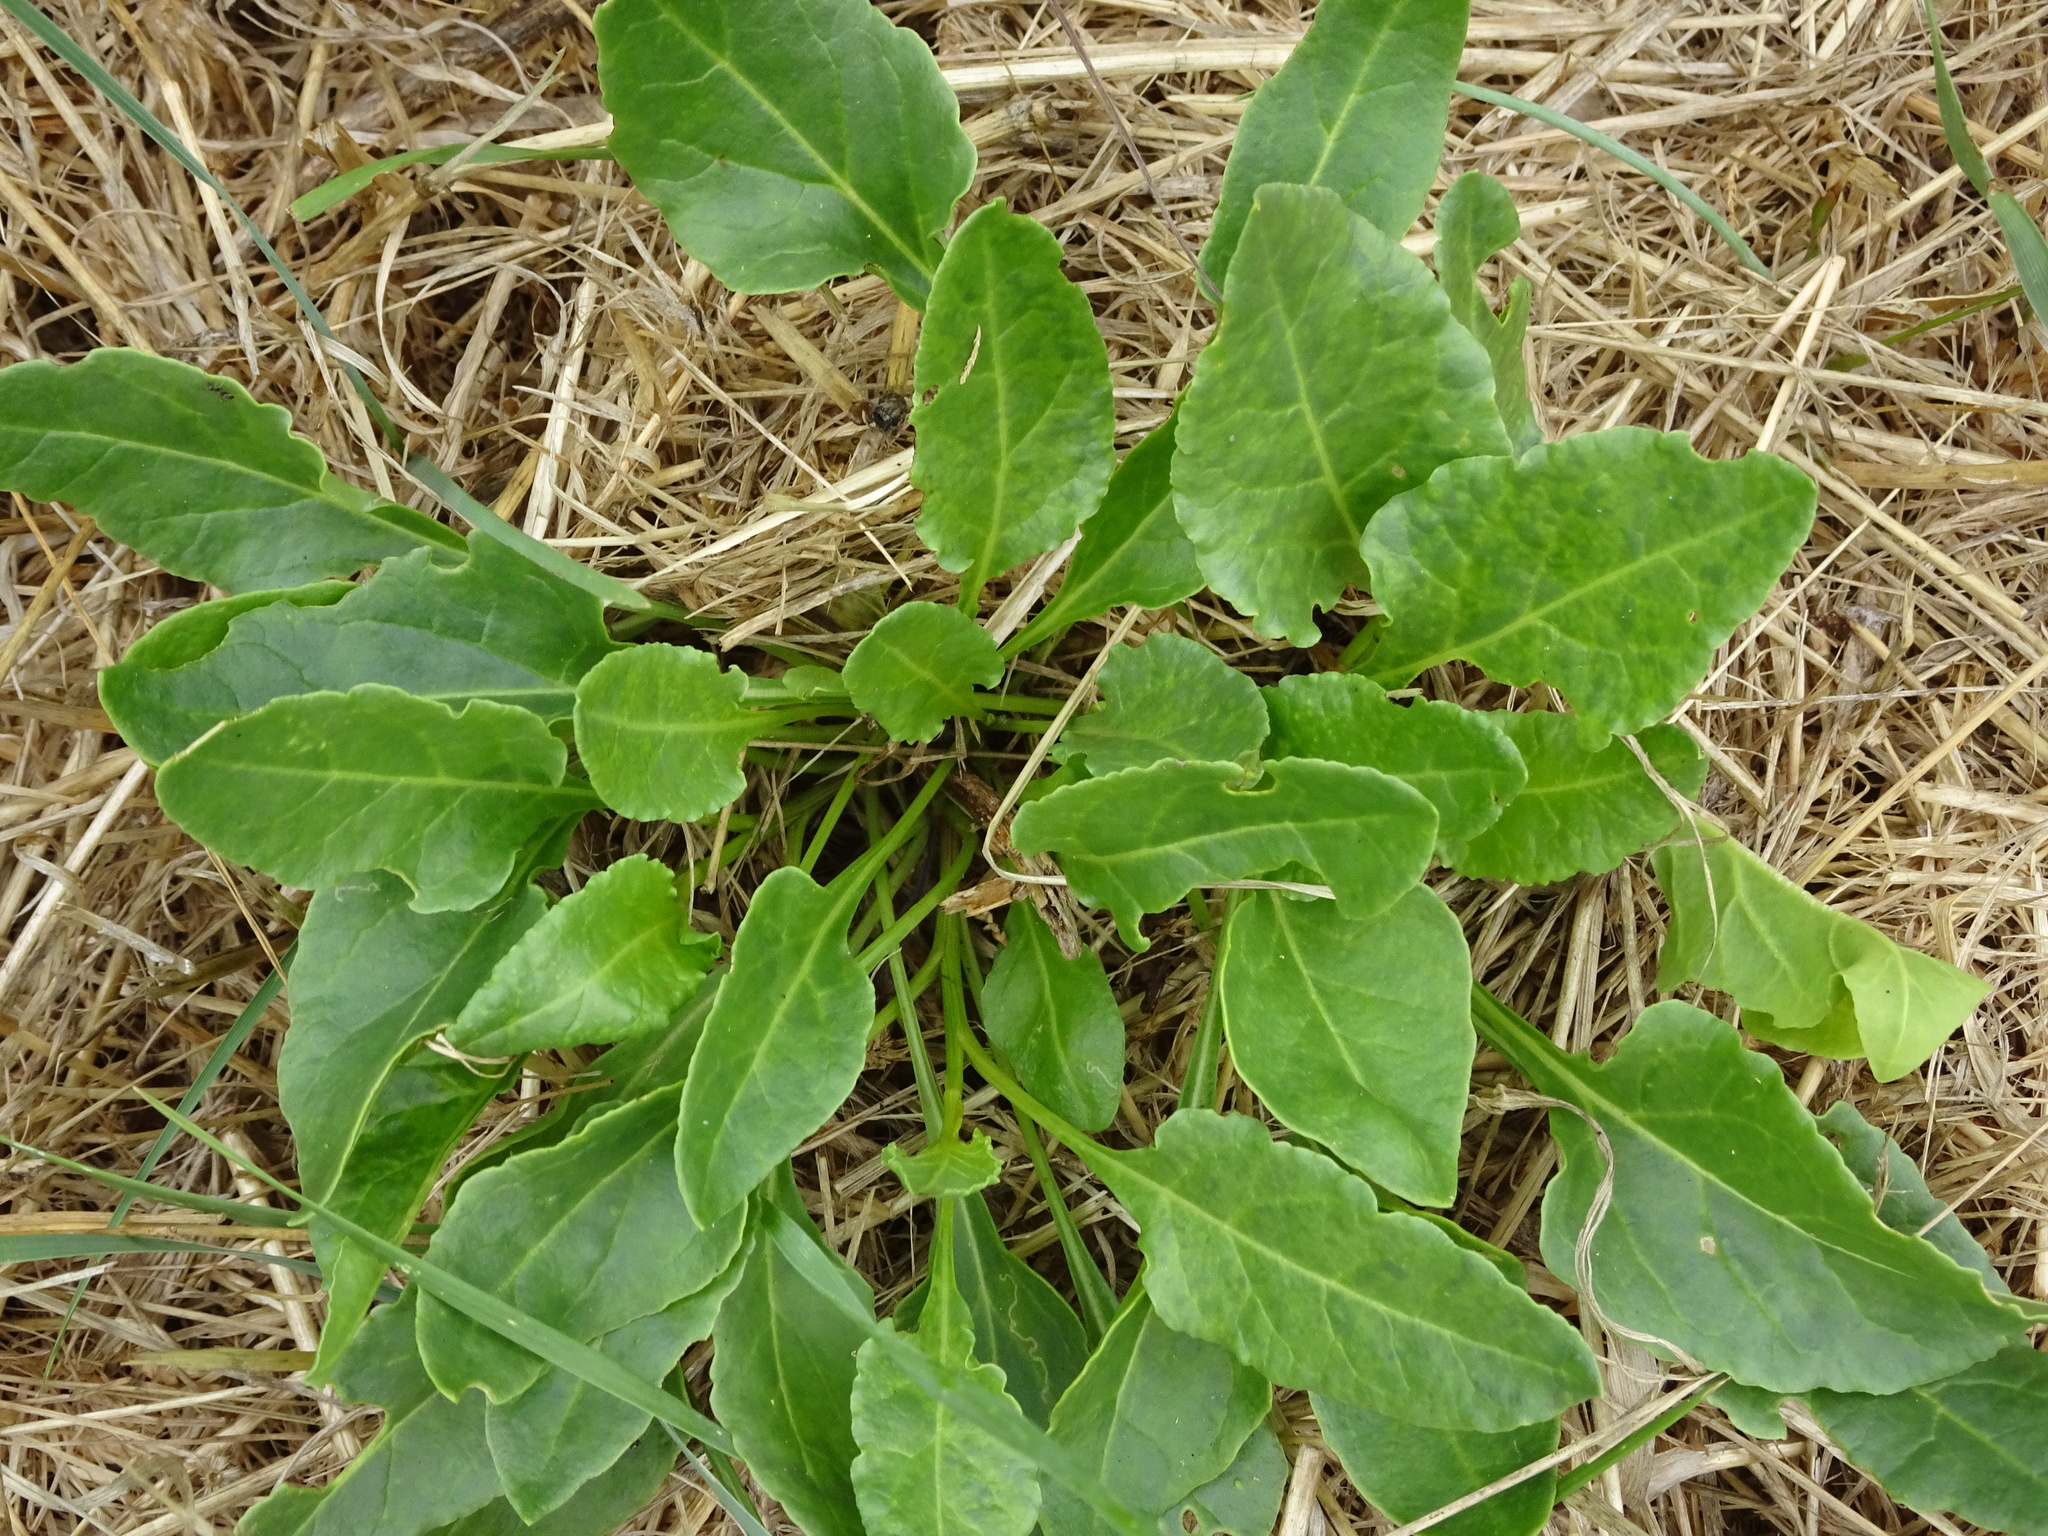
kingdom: Plantae
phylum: Tracheophyta
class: Magnoliopsida
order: Caryophyllales
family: Amaranthaceae
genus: Beta
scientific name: Beta vulgaris
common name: Beet
